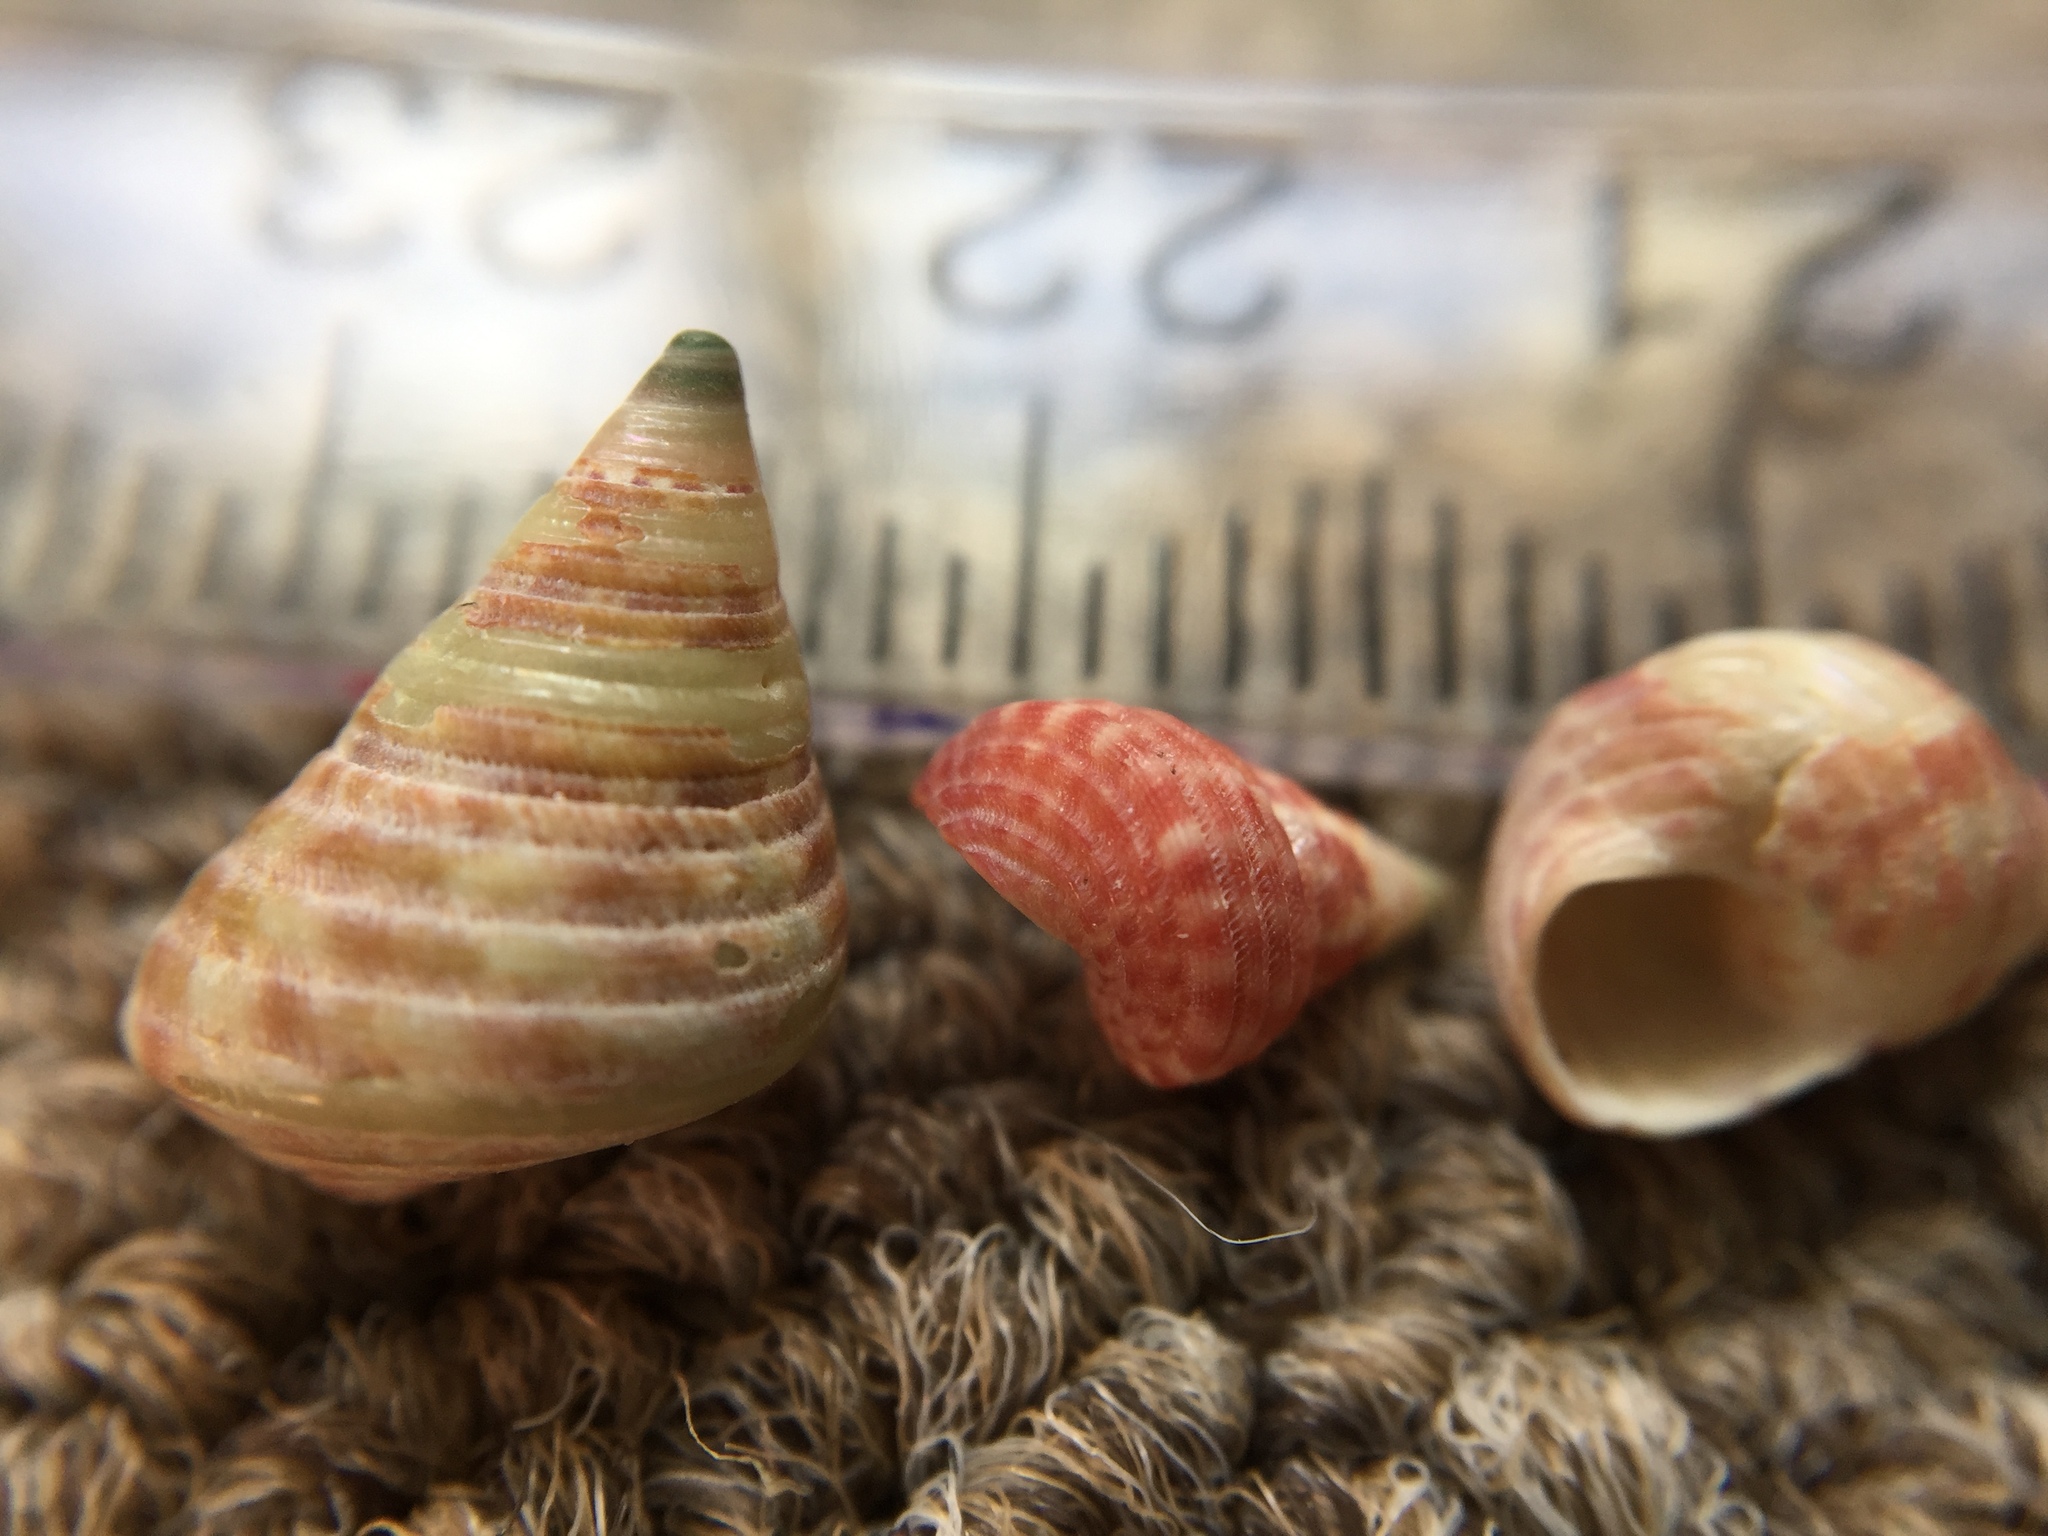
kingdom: Animalia
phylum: Mollusca
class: Gastropoda
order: Trochida
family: Trochidae
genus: Micrelenchus
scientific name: Micrelenchus purpureus
